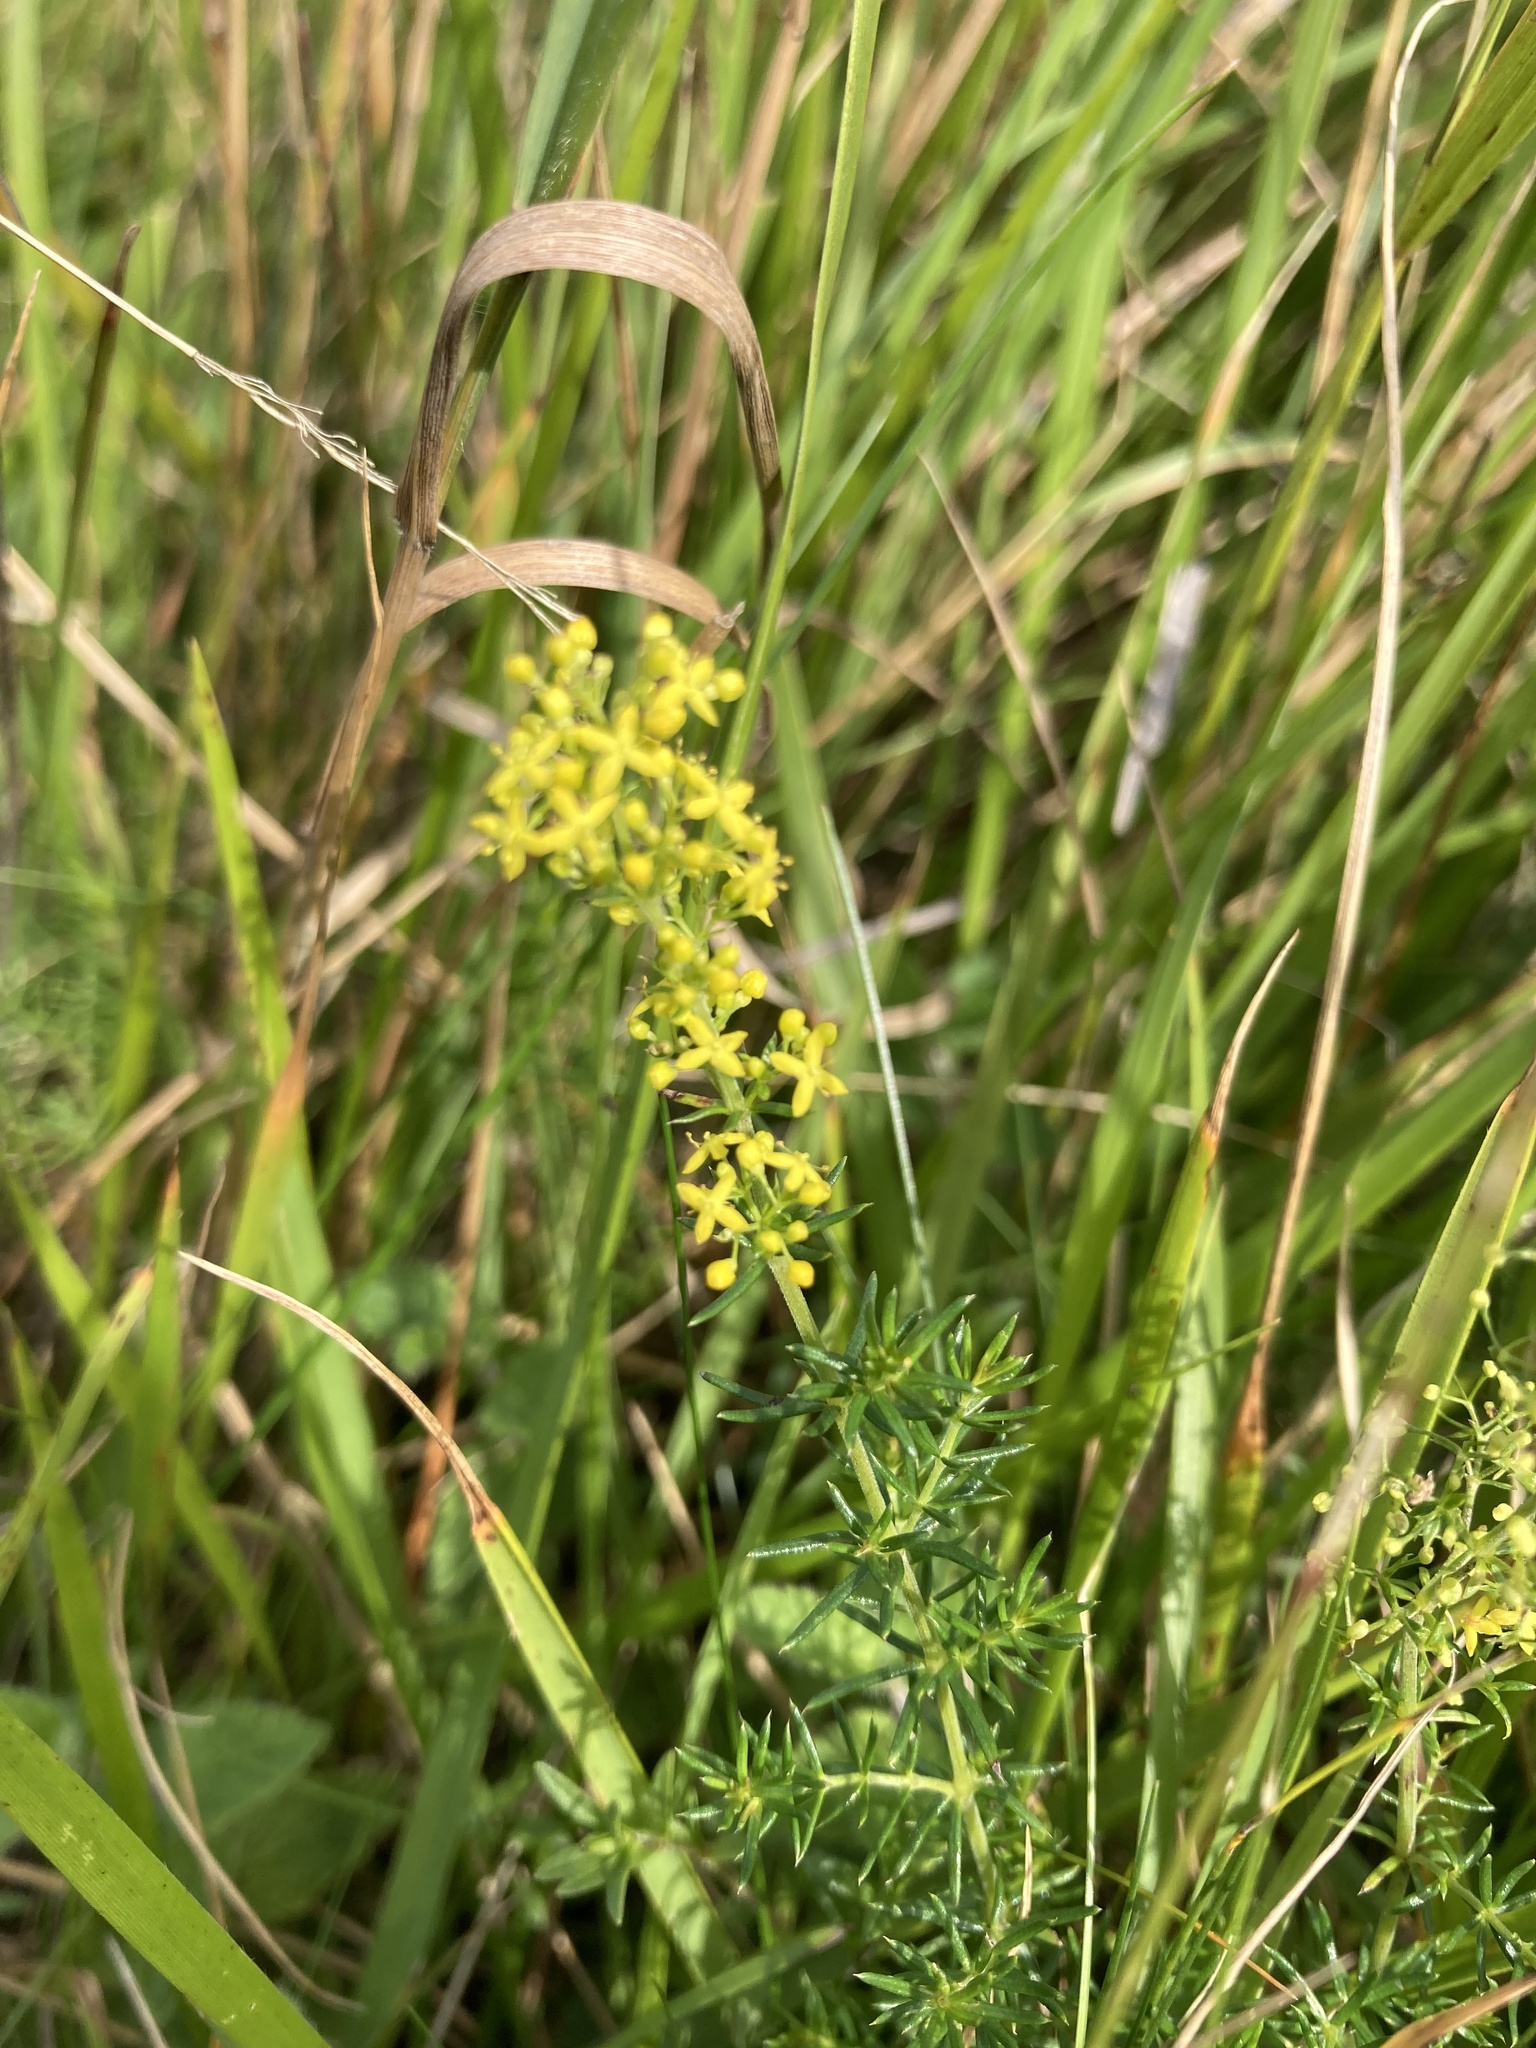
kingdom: Plantae
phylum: Tracheophyta
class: Magnoliopsida
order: Gentianales
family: Rubiaceae
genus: Galium
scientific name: Galium verum
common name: Lady's bedstraw
